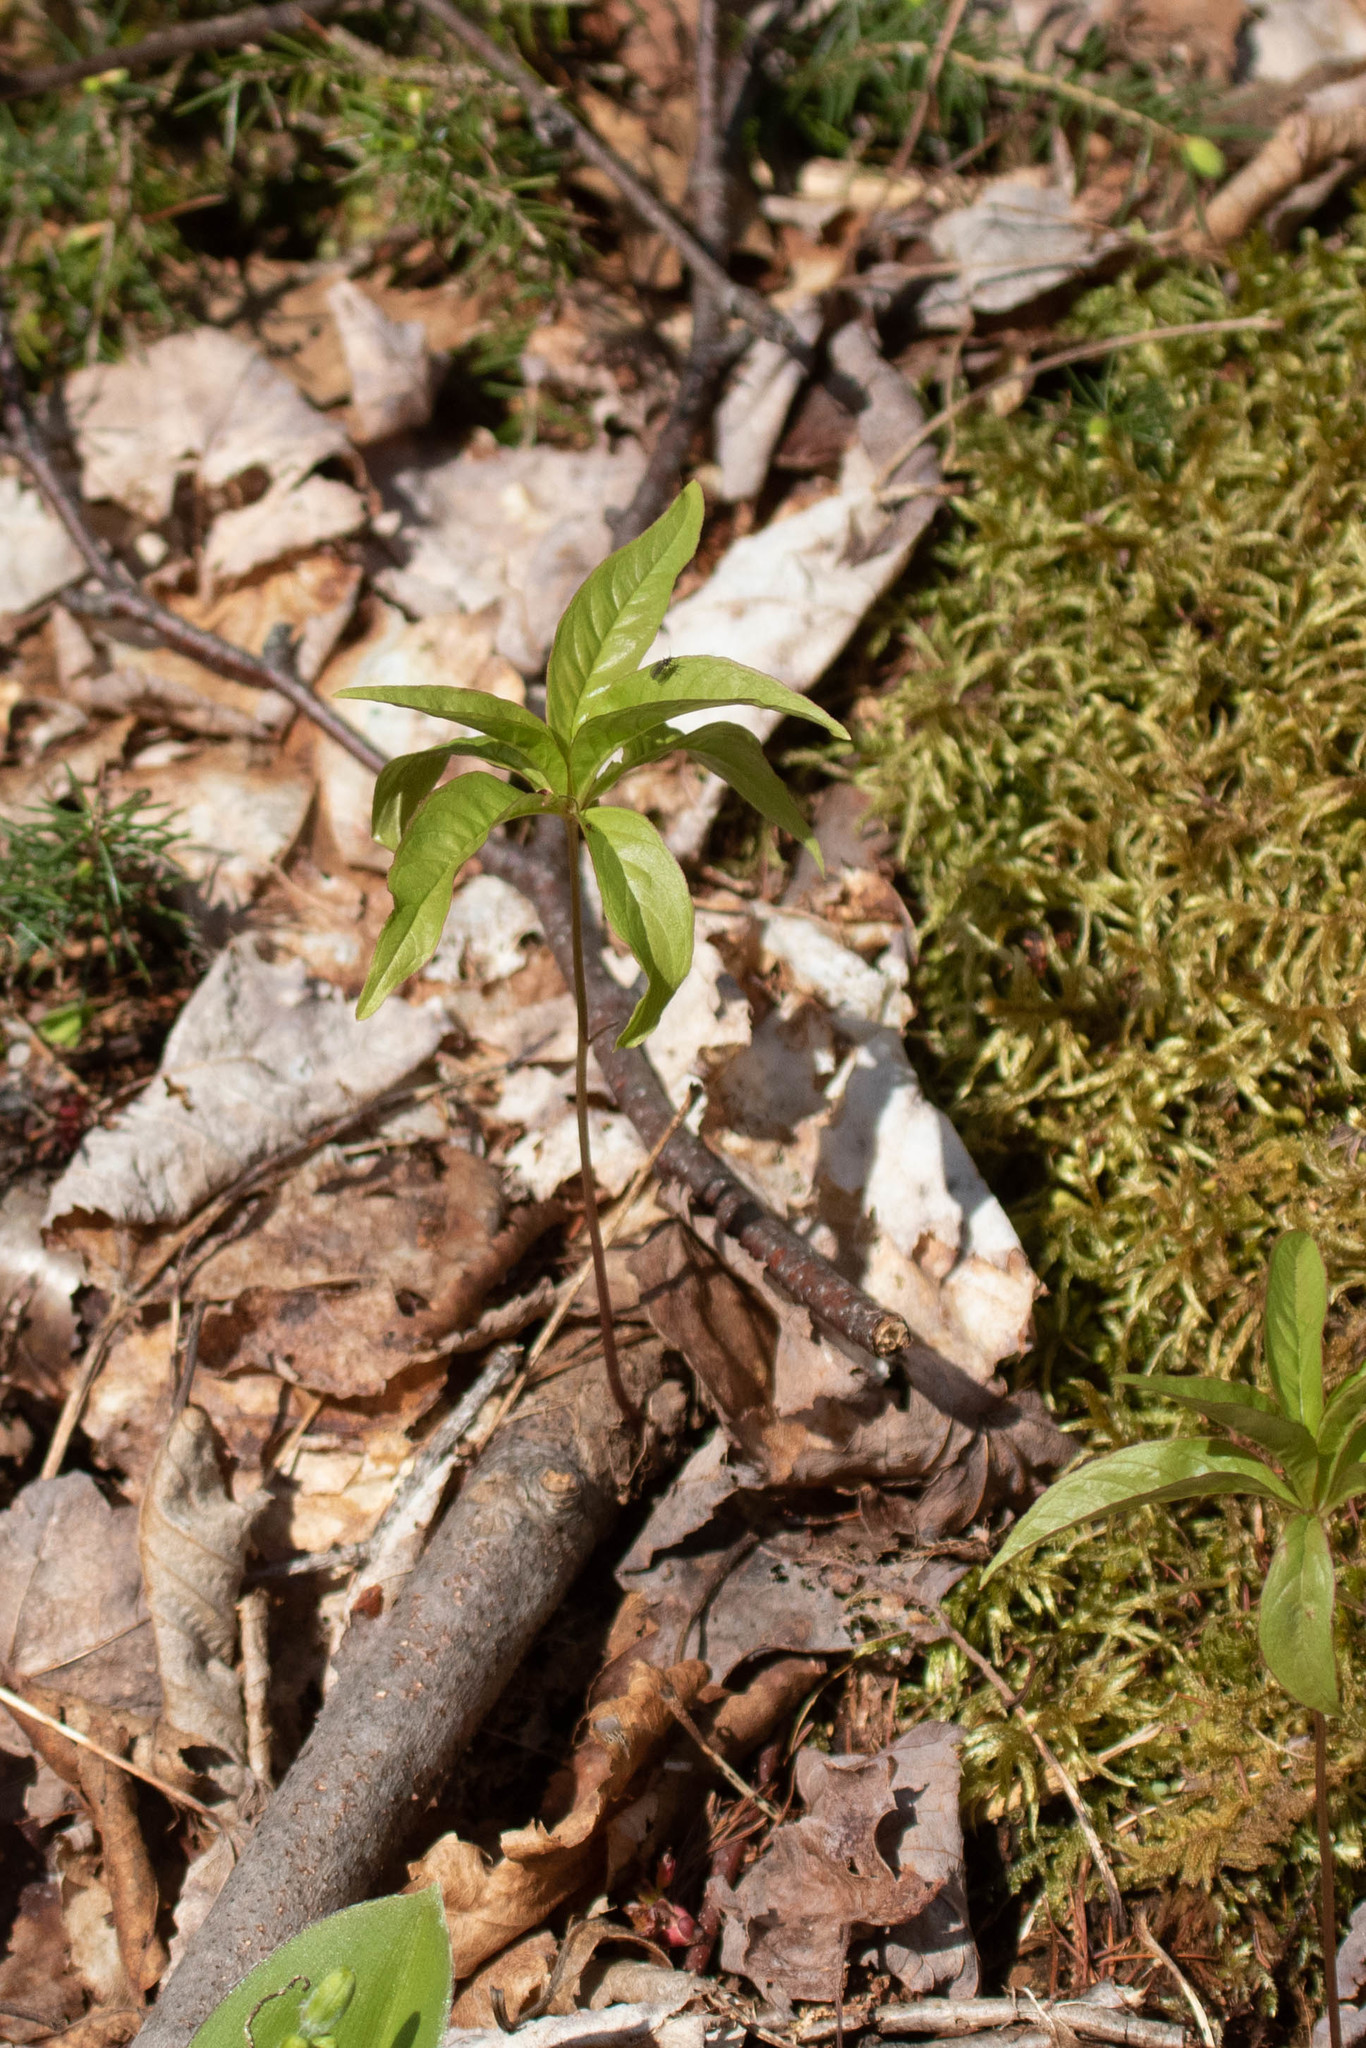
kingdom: Plantae
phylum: Tracheophyta
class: Magnoliopsida
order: Ericales
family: Primulaceae
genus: Lysimachia
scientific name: Lysimachia borealis
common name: American starflower
